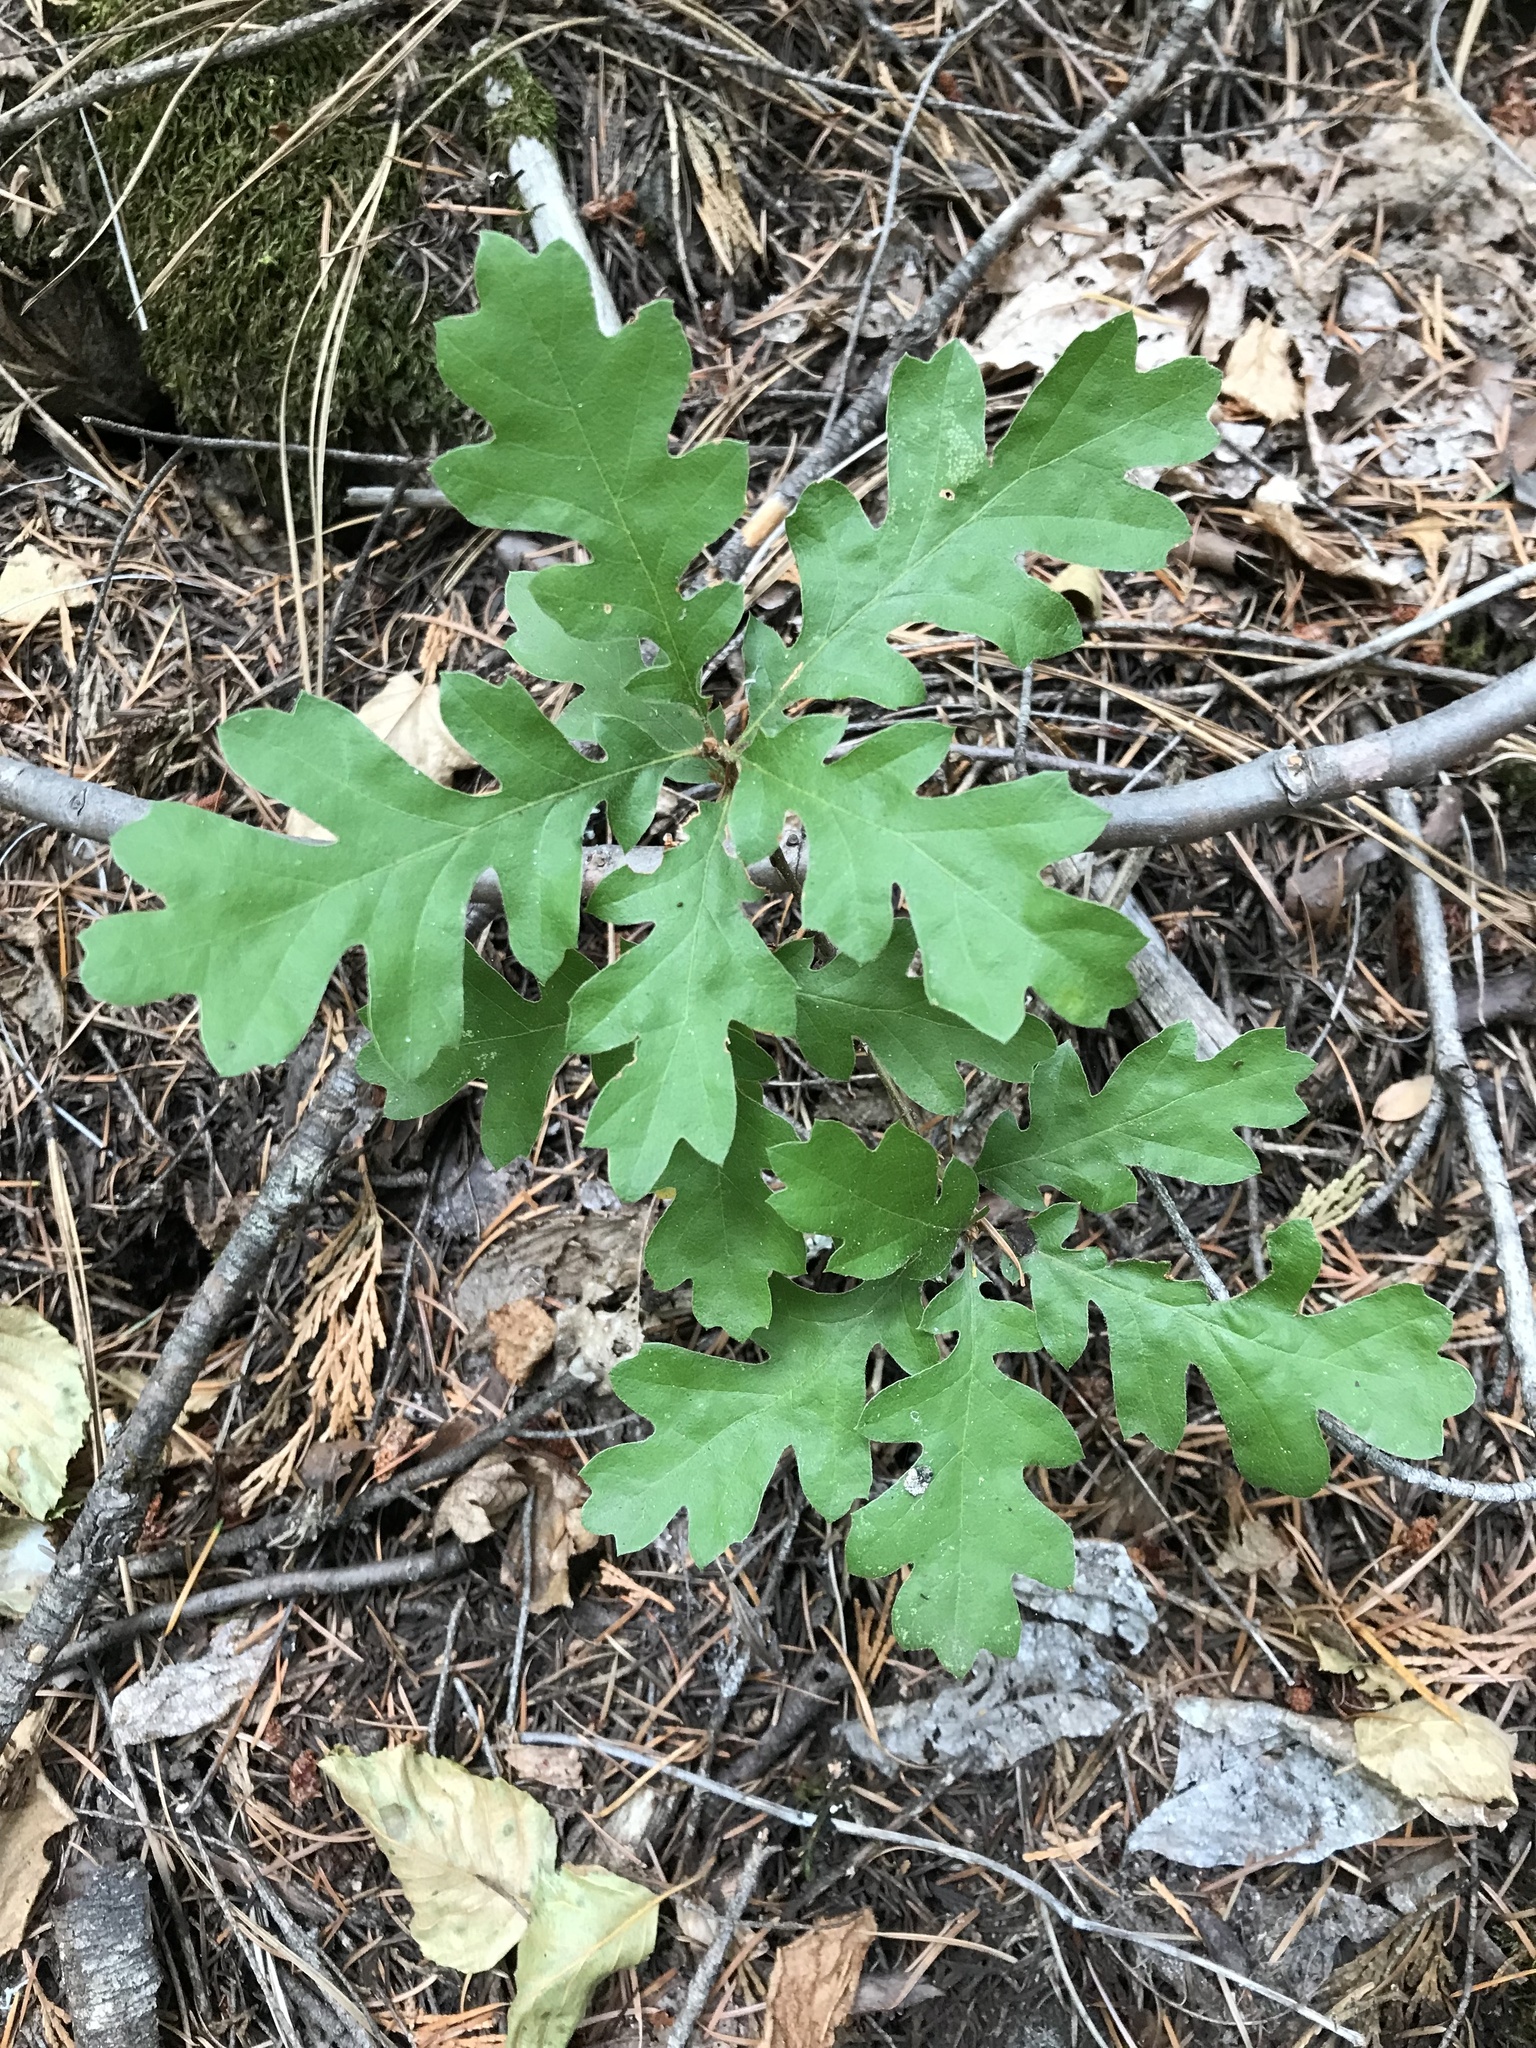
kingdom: Plantae
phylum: Tracheophyta
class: Magnoliopsida
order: Fagales
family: Fagaceae
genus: Quercus
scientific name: Quercus kelloggii
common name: California black oak
